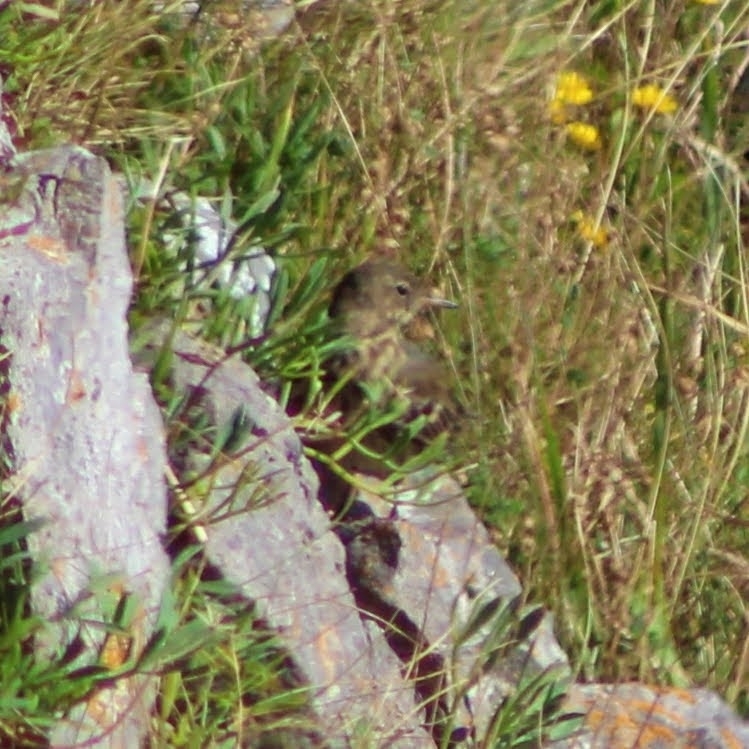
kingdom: Animalia
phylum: Chordata
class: Aves
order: Passeriformes
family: Motacillidae
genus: Anthus
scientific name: Anthus petrosus
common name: Eurasian rock pipit
